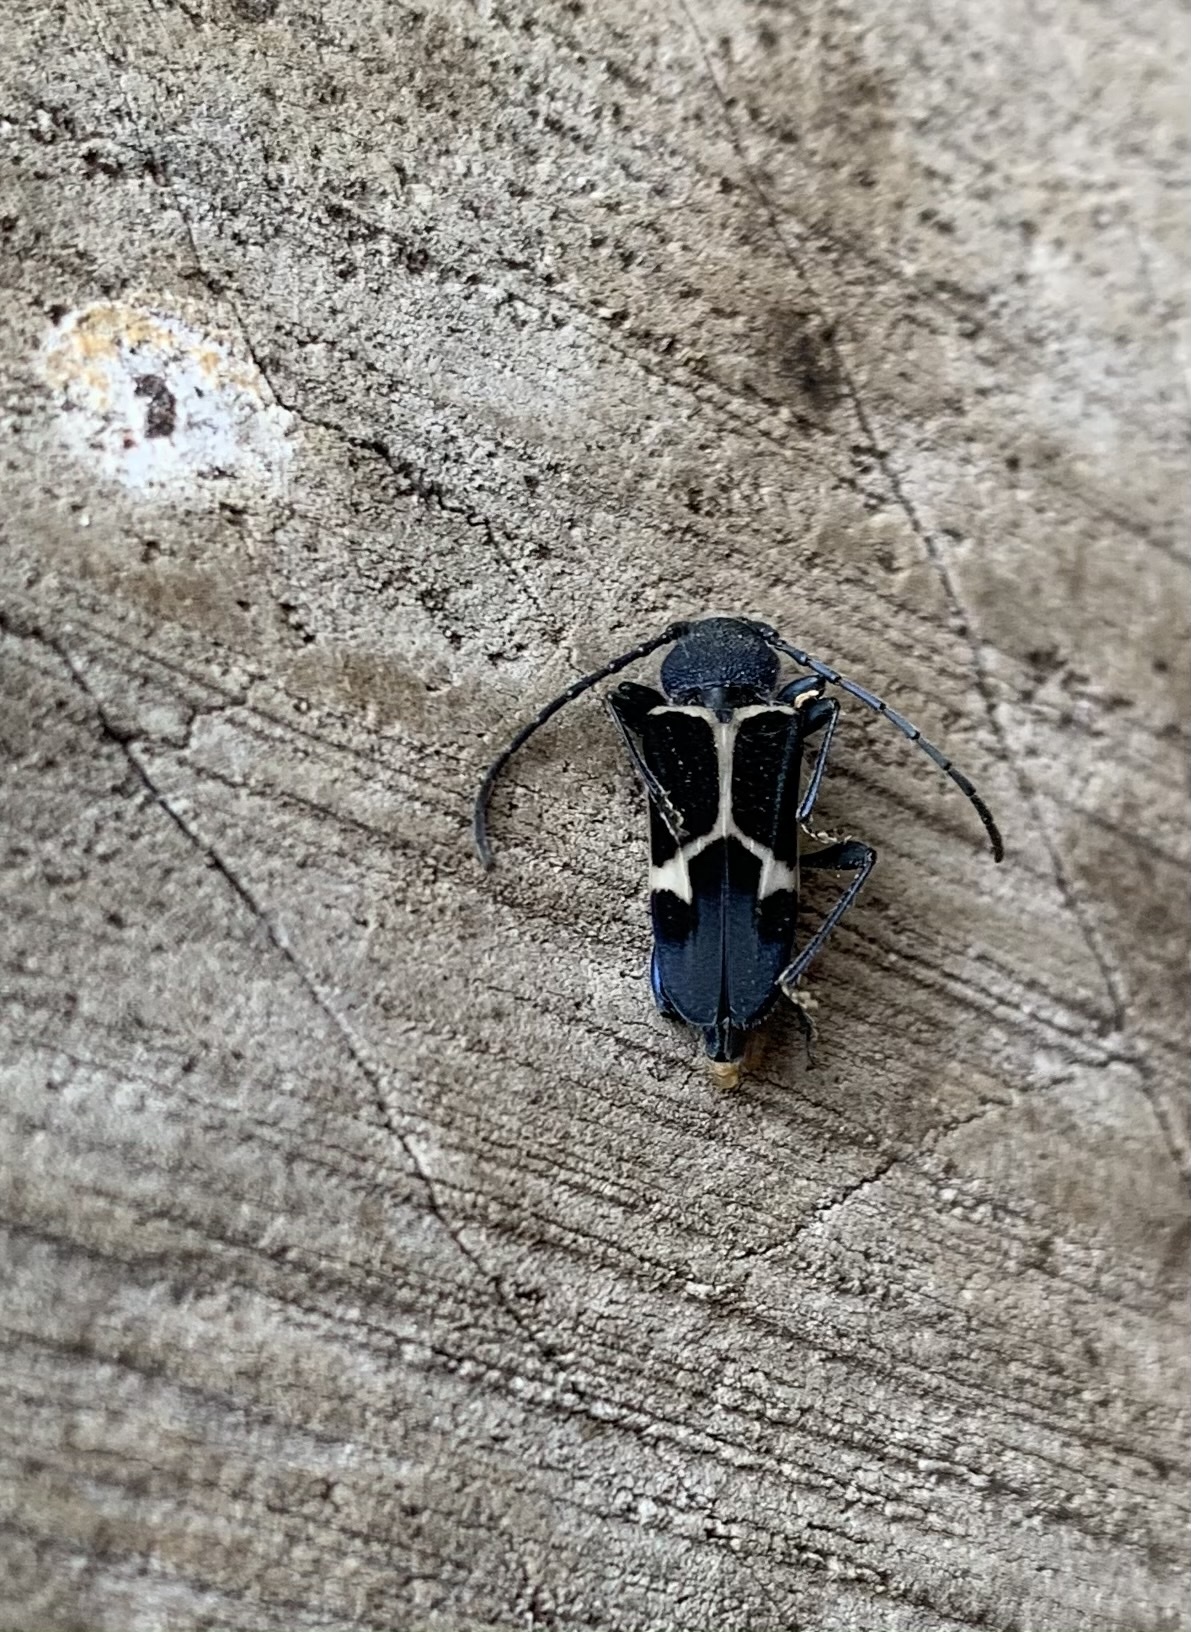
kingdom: Animalia
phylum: Arthropoda
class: Insecta
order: Coleoptera
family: Cerambycidae
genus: Calydon
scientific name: Calydon submetallicum
